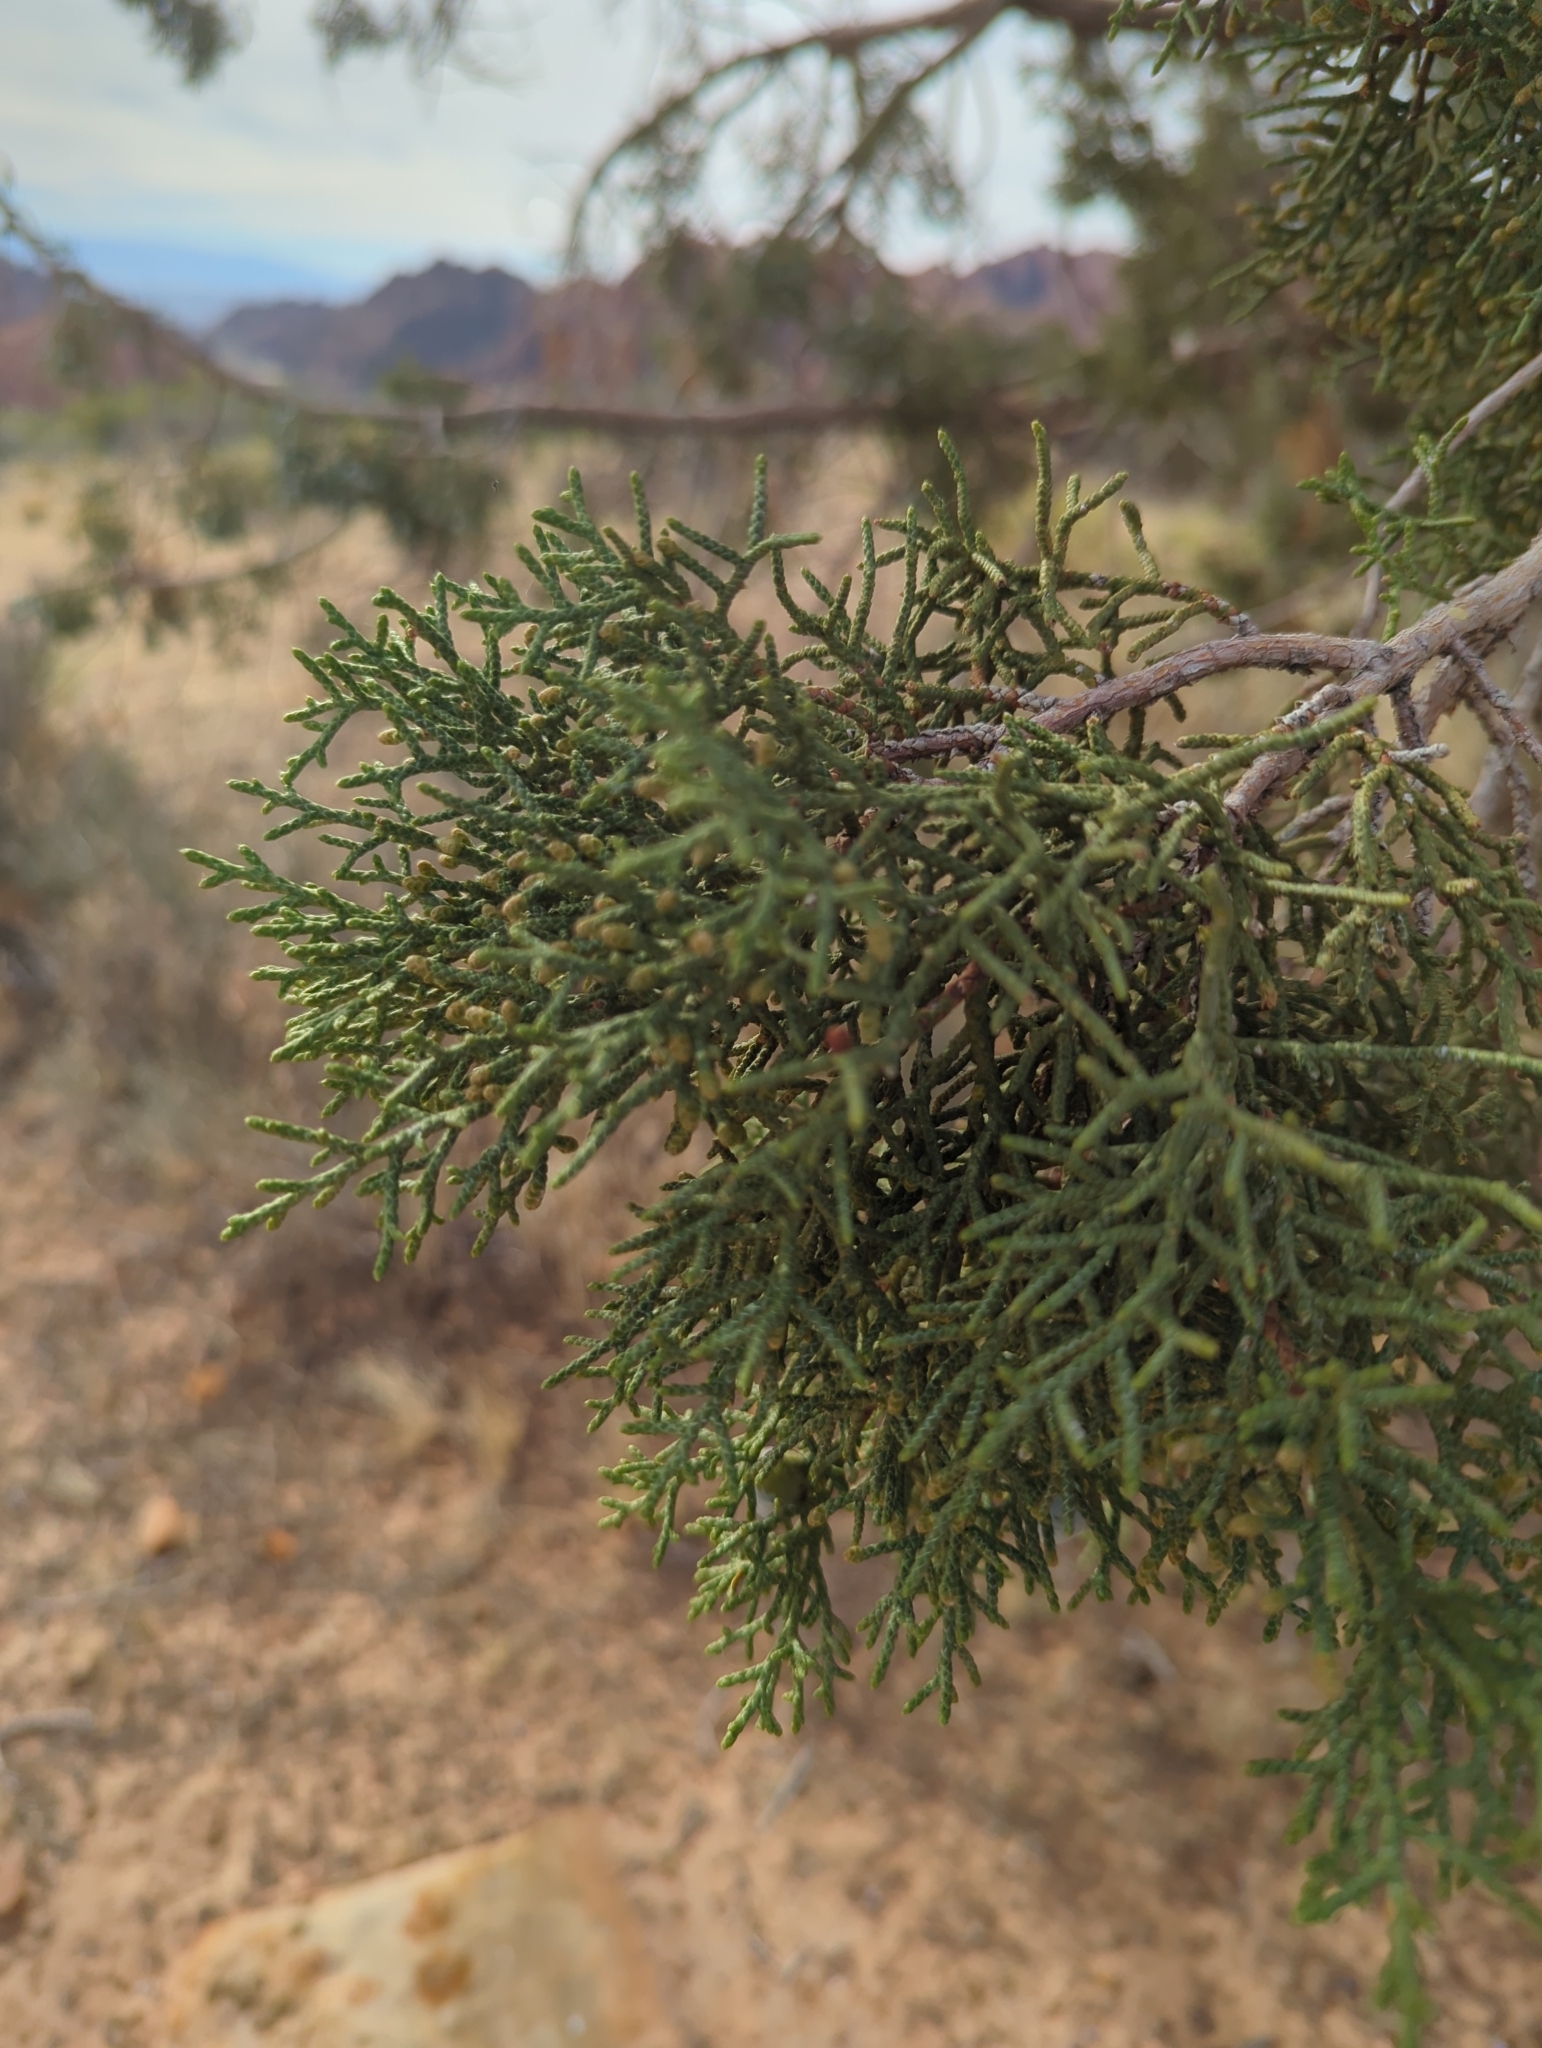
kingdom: Plantae
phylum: Tracheophyta
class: Pinopsida
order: Pinales
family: Cupressaceae
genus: Juniperus
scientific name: Juniperus osteosperma
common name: Utah juniper
